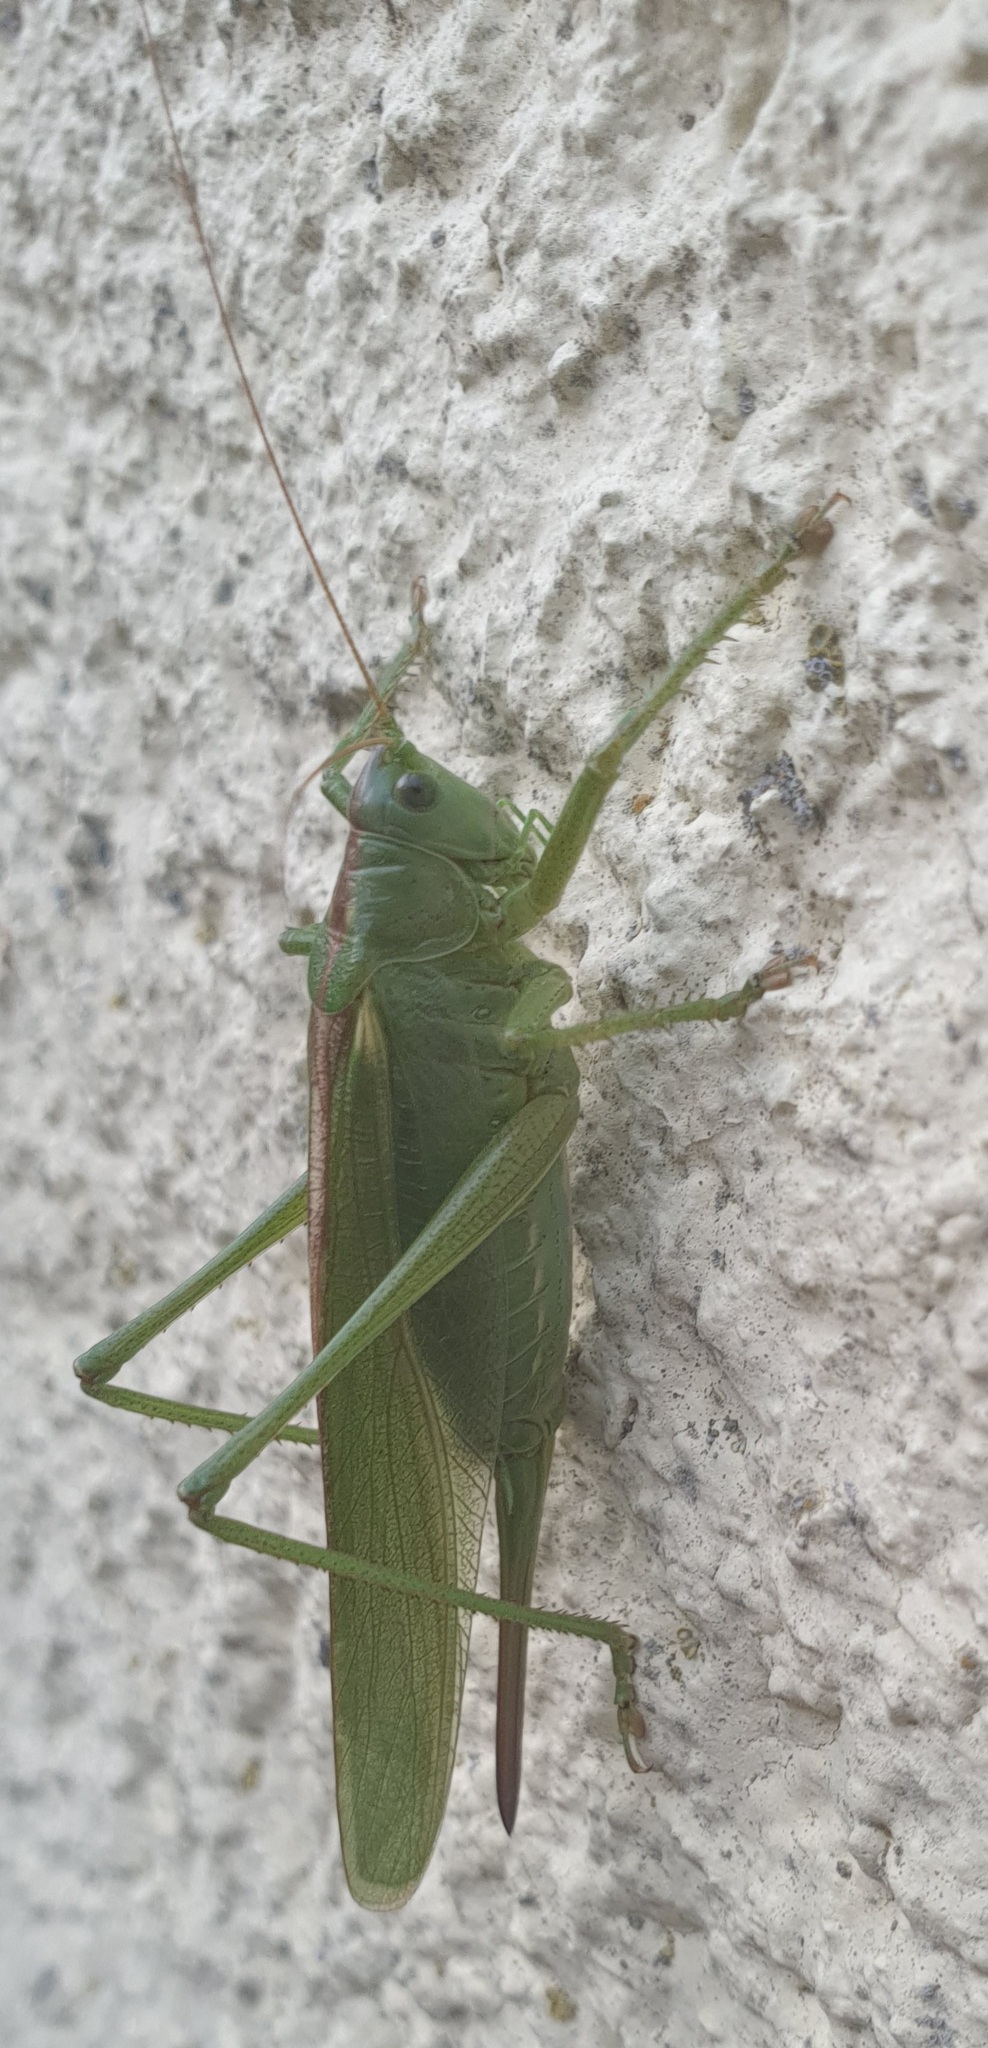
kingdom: Animalia
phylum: Arthropoda
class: Insecta
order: Orthoptera
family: Tettigoniidae
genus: Tettigonia
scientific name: Tettigonia viridissima
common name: Great green bush-cricket
